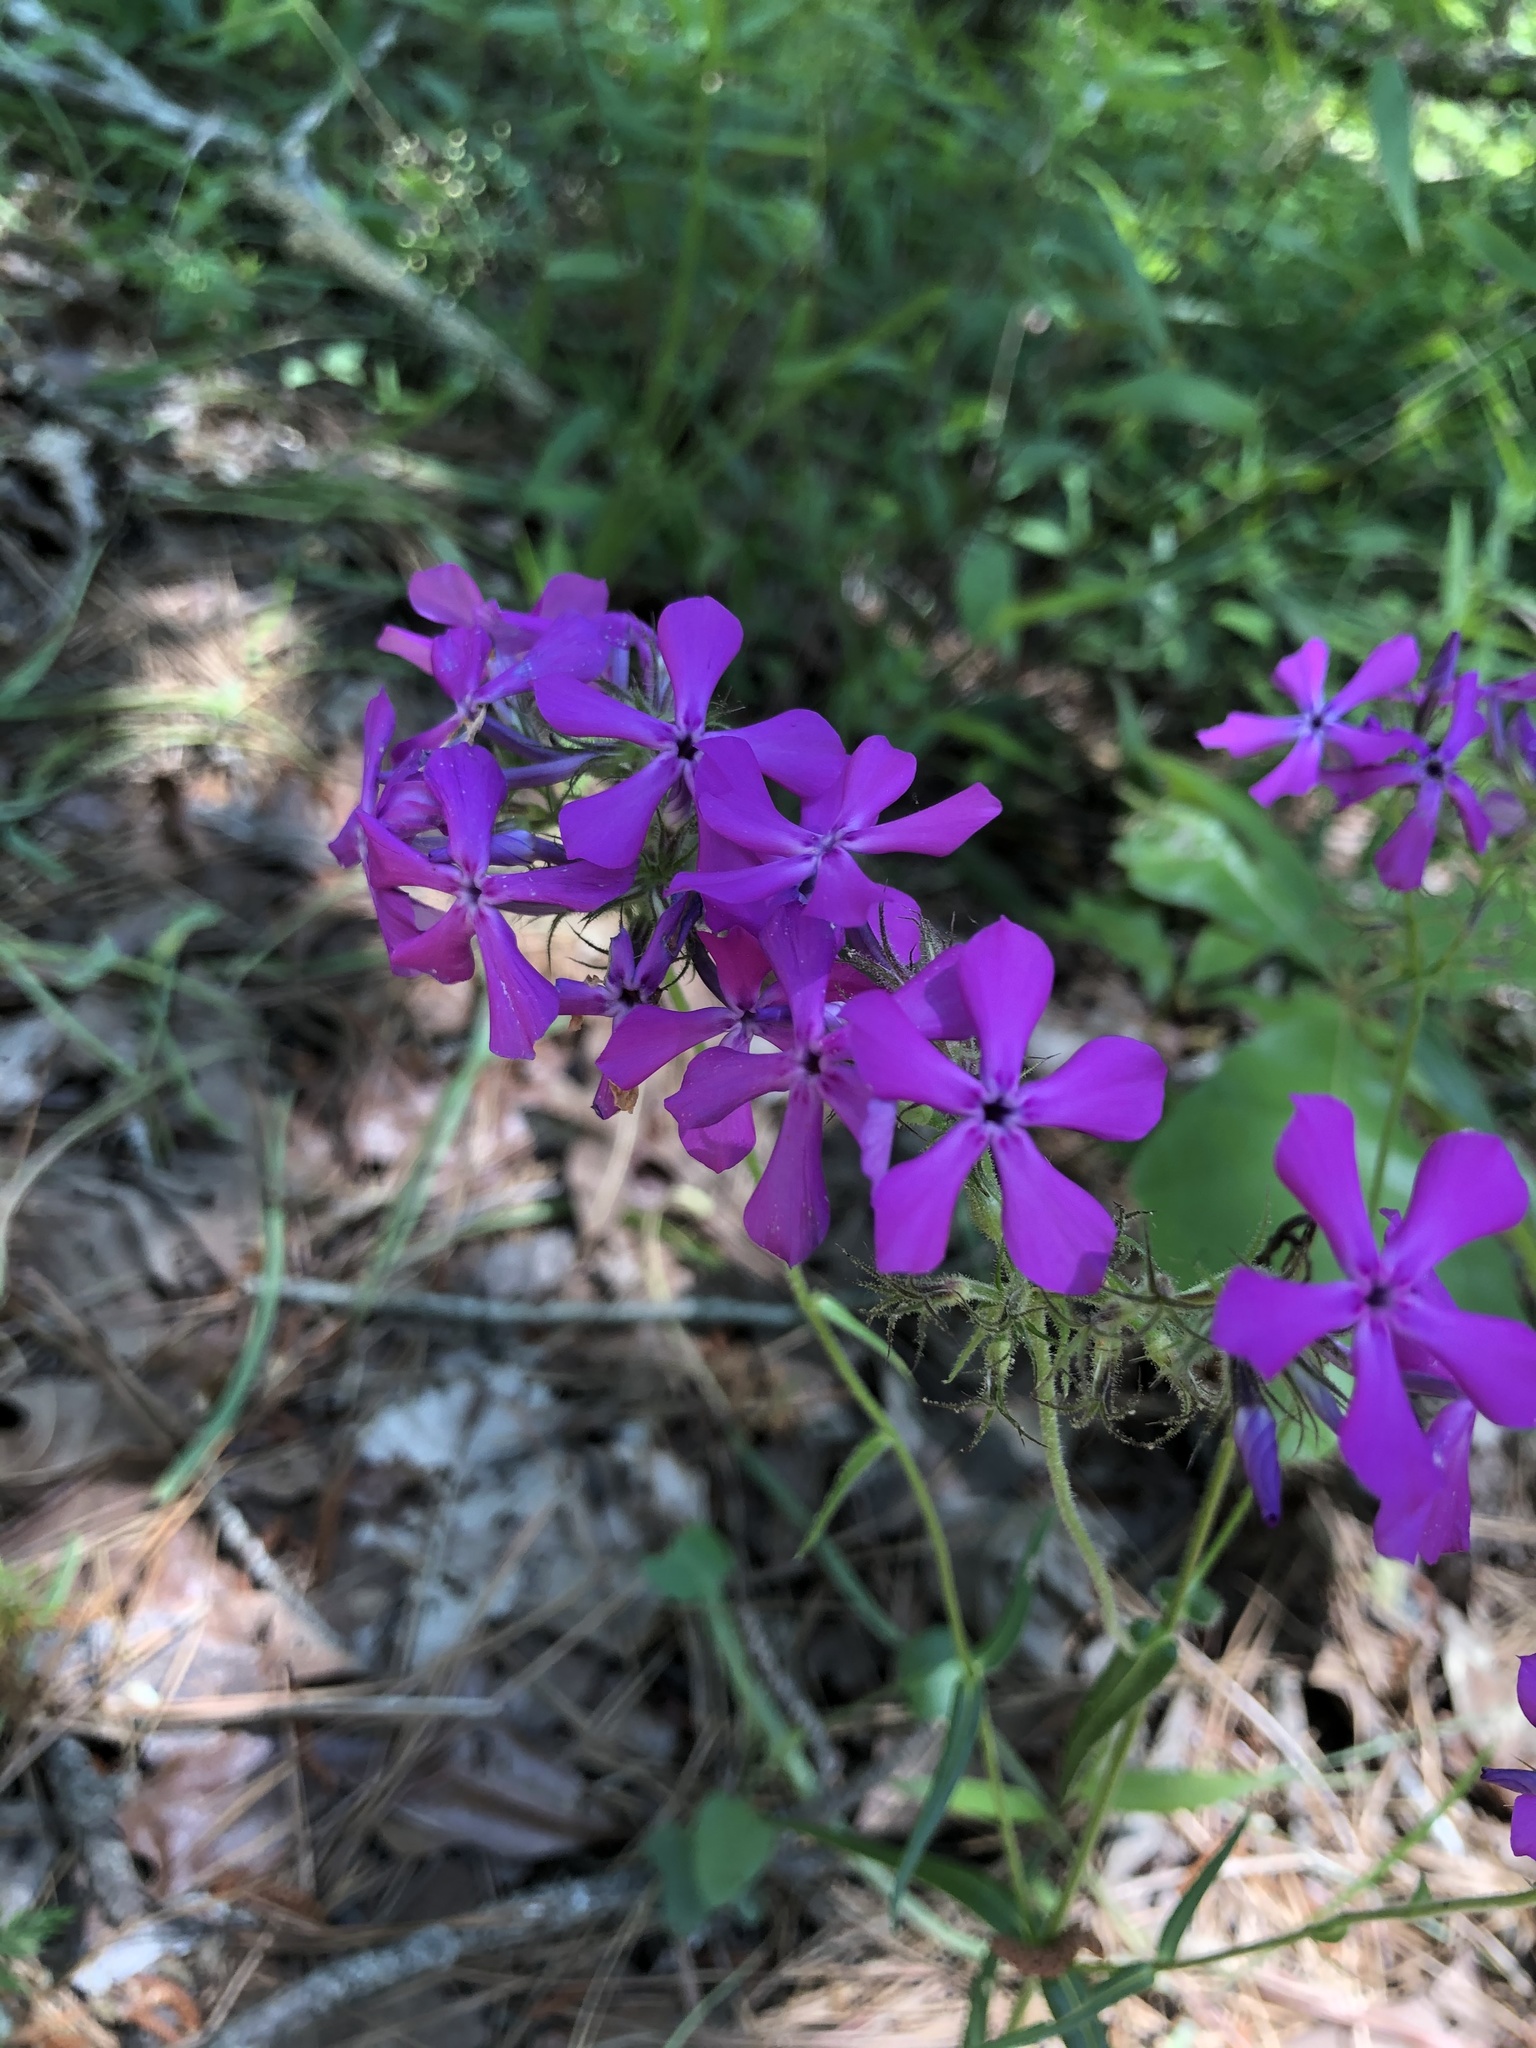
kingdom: Plantae
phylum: Tracheophyta
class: Magnoliopsida
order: Ericales
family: Polemoniaceae
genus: Phlox
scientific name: Phlox pilosa
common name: Prairie phlox
